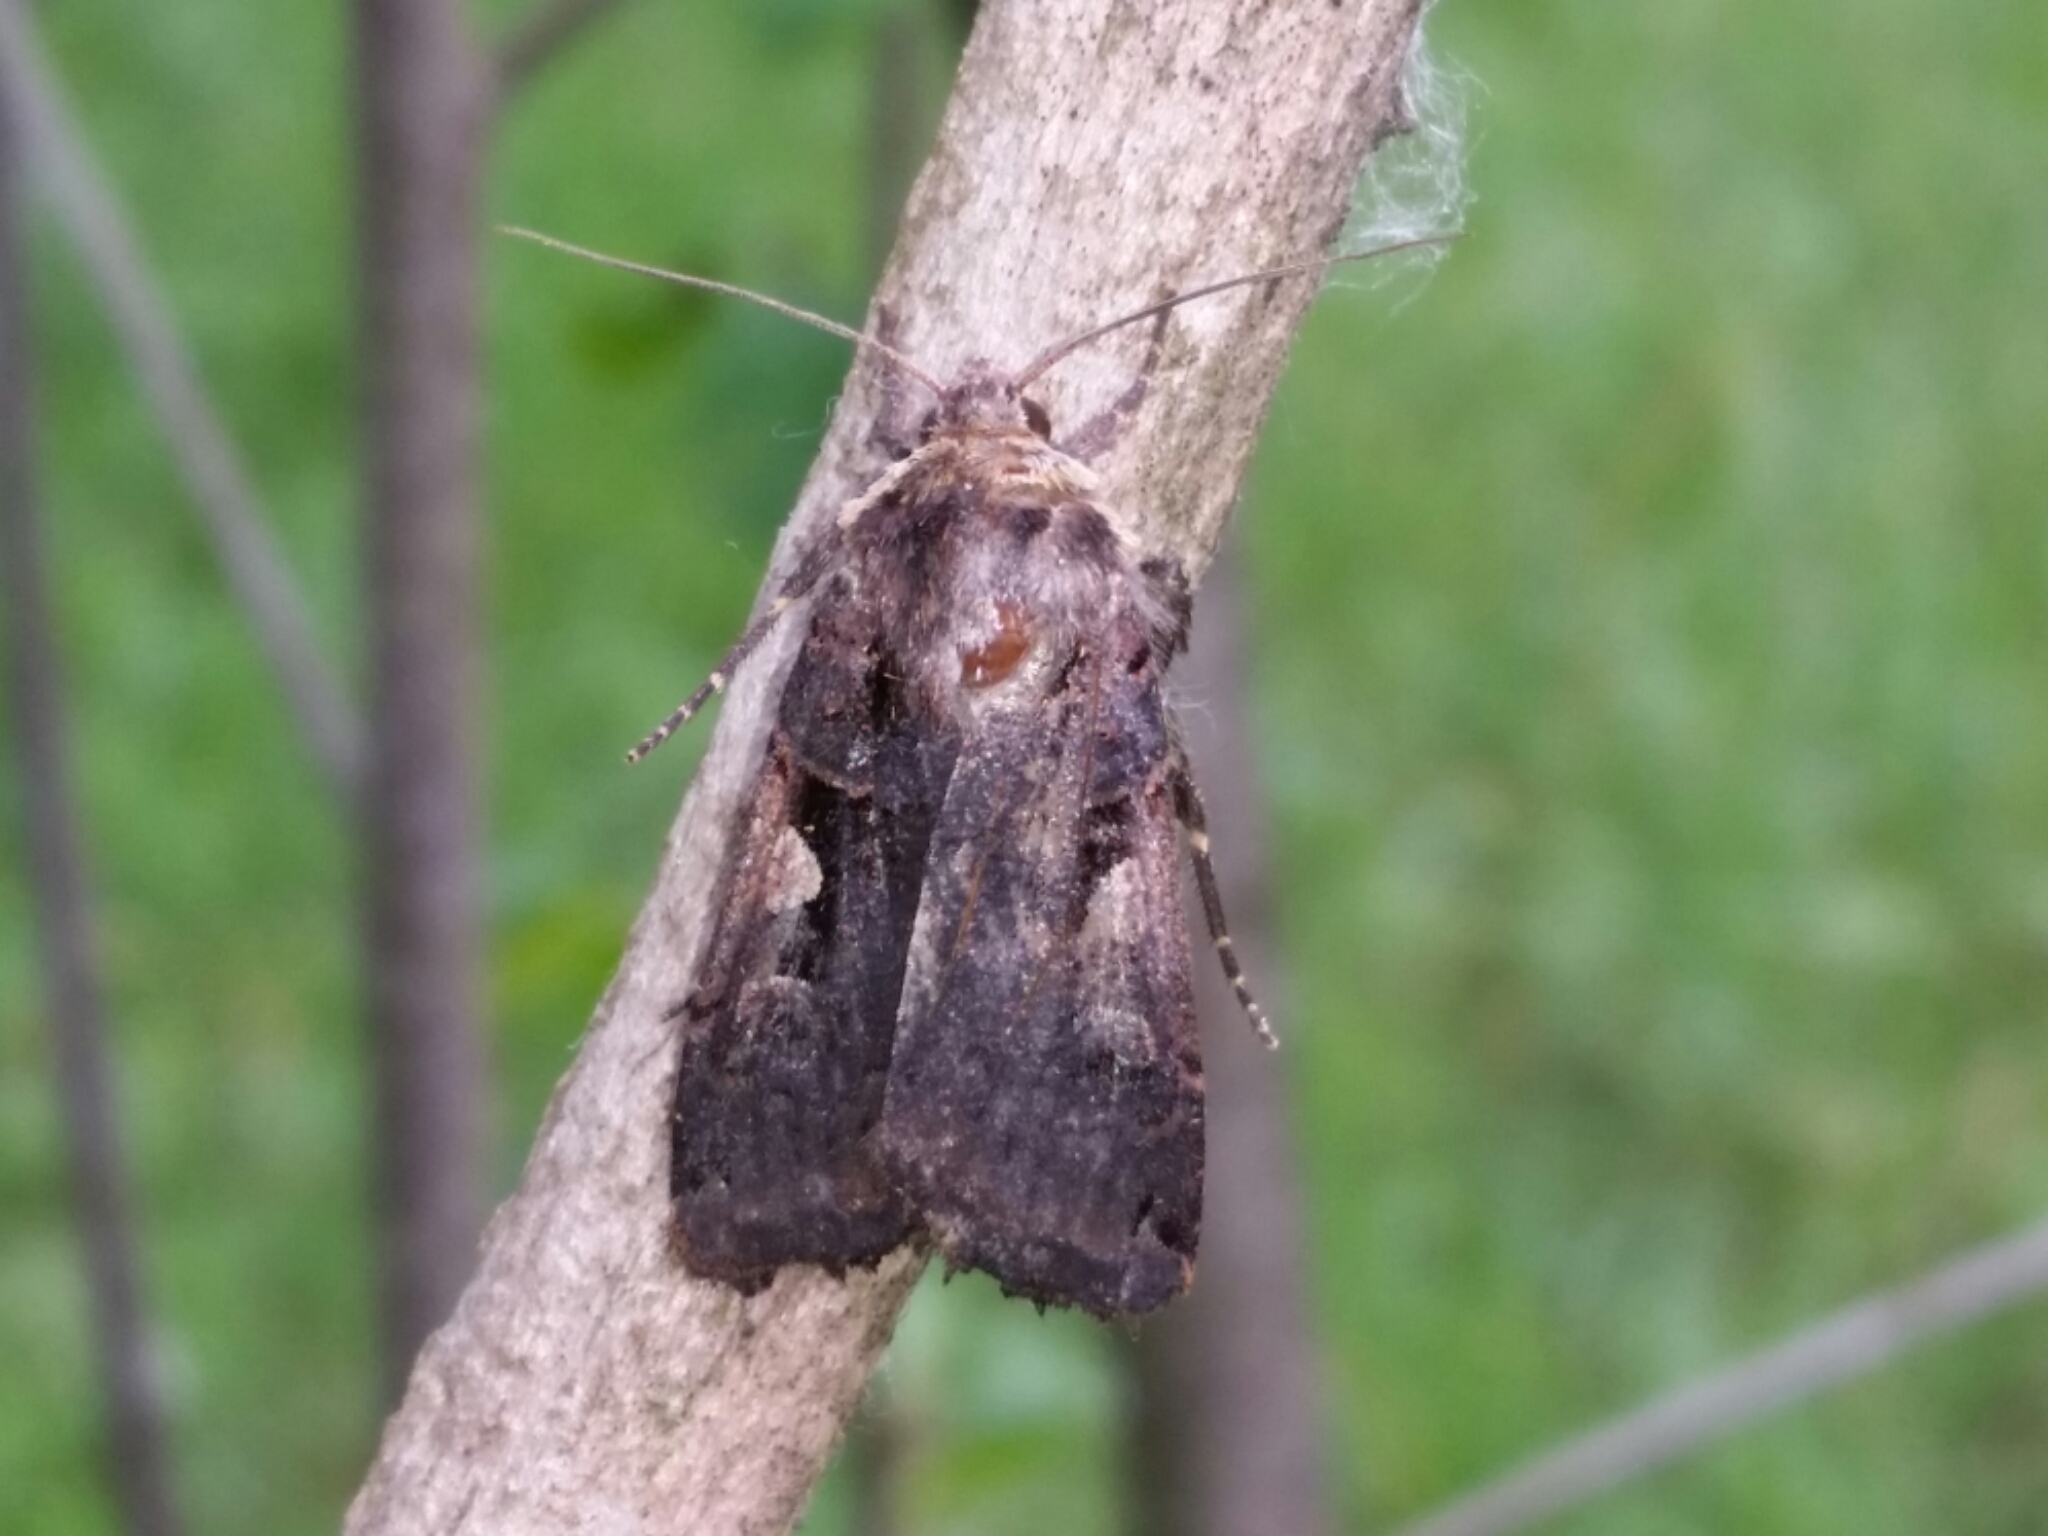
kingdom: Animalia
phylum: Arthropoda
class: Insecta
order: Lepidoptera
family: Noctuidae
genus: Xestia
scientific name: Xestia c-nigrum
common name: Setaceous hebrew character
